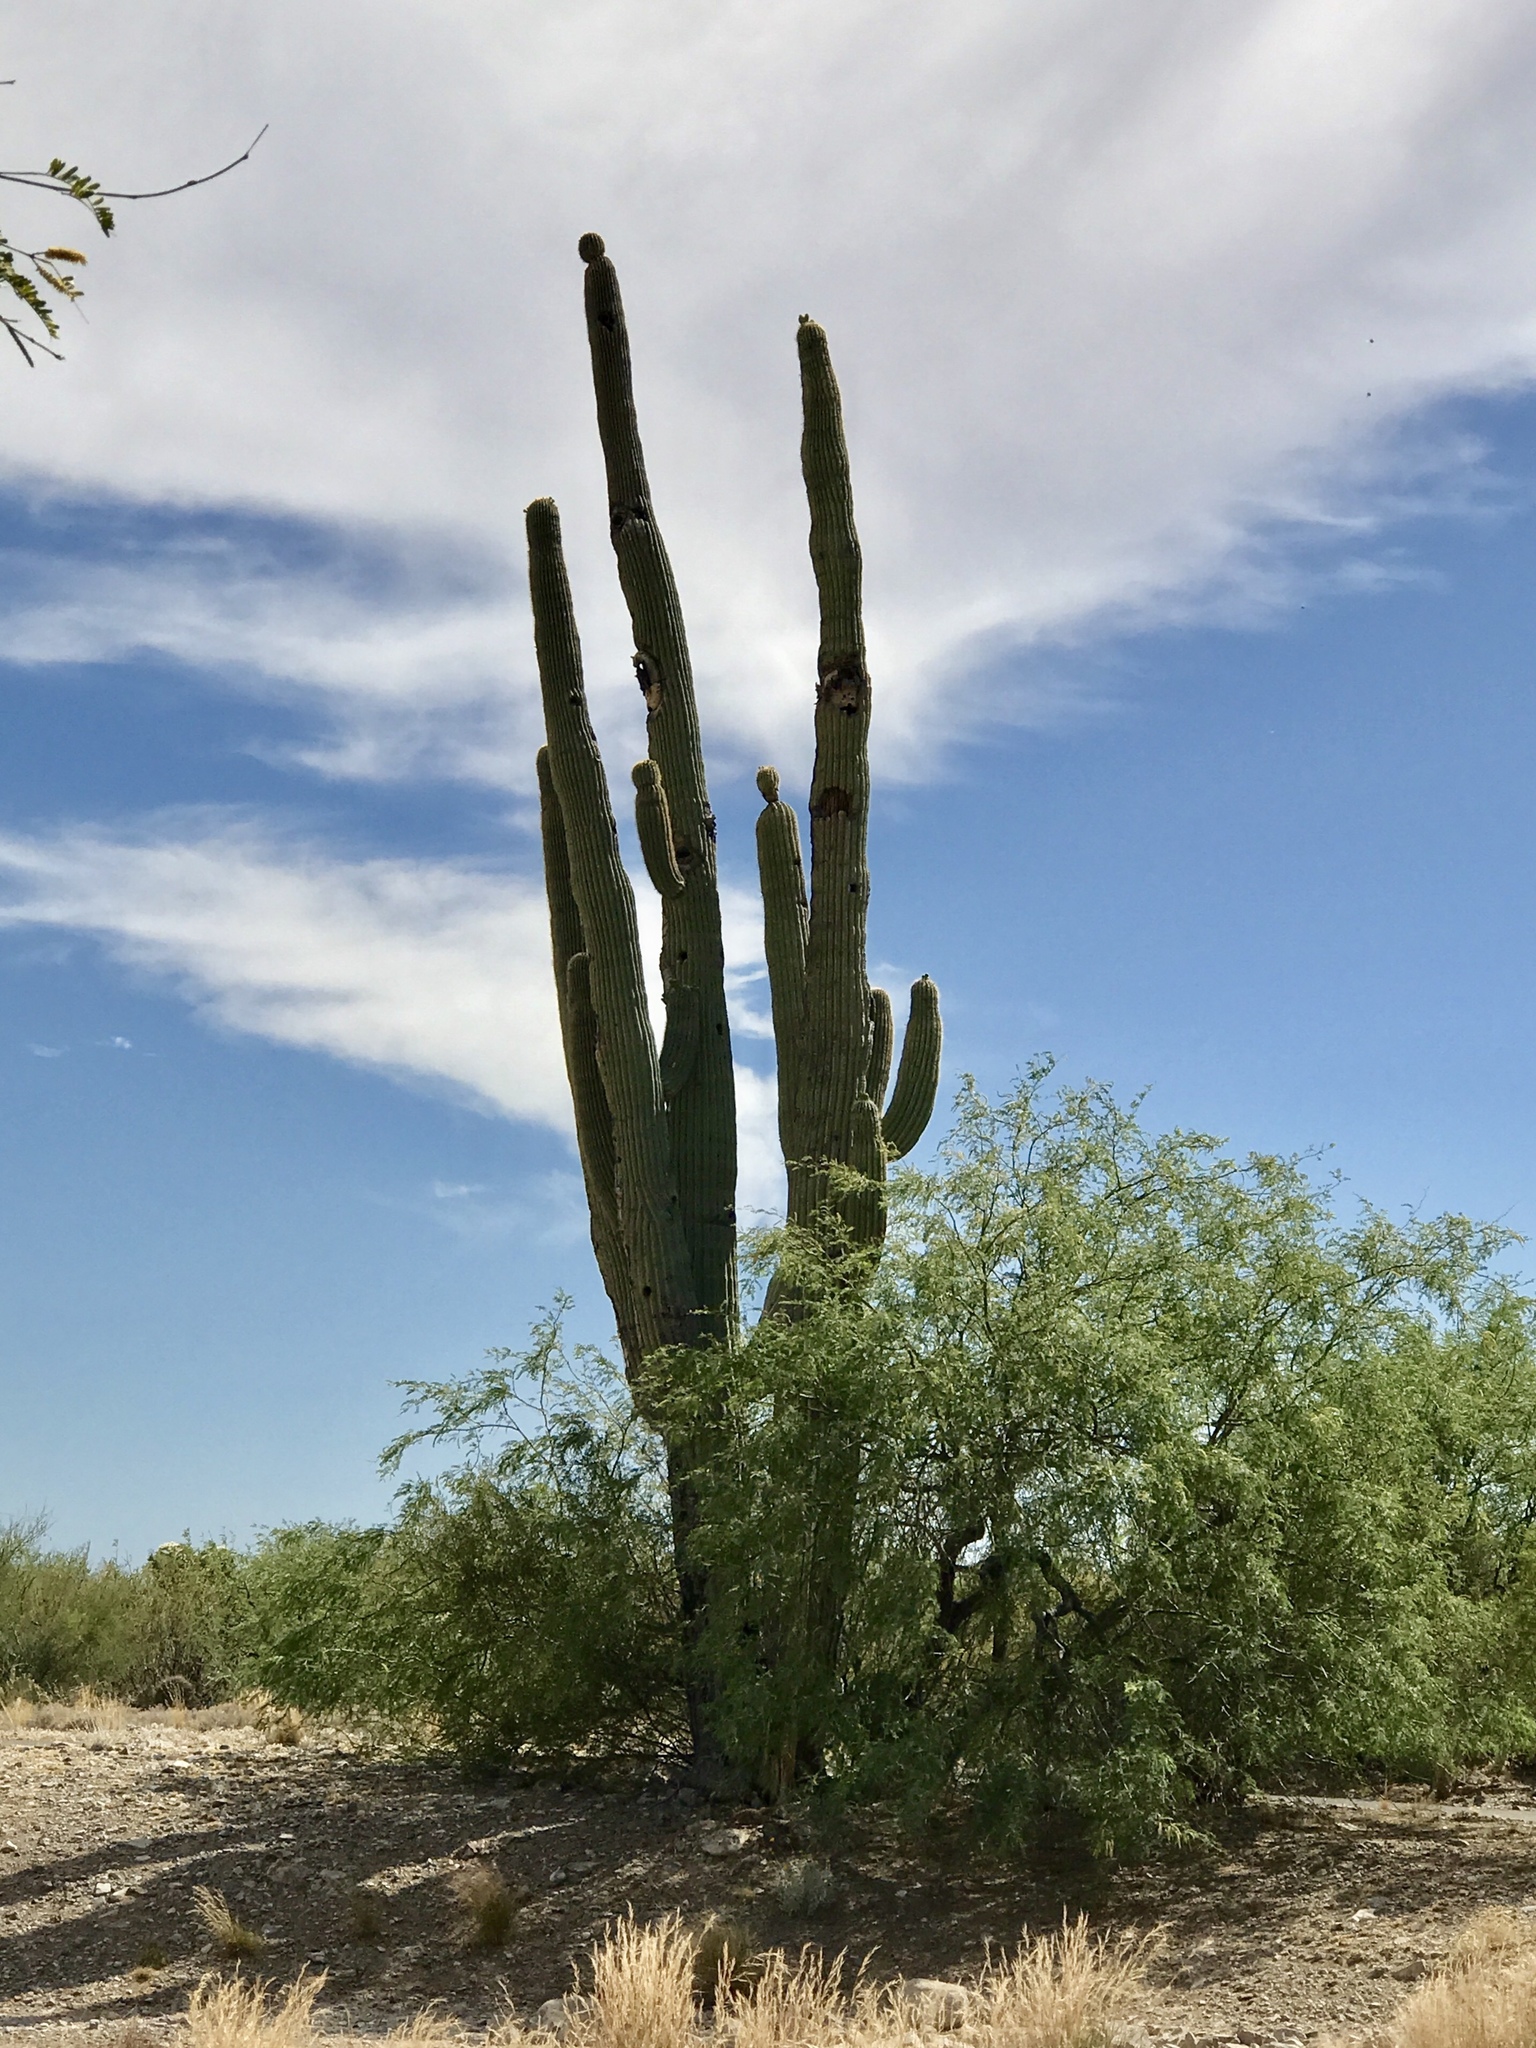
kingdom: Plantae
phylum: Tracheophyta
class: Magnoliopsida
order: Caryophyllales
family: Cactaceae
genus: Carnegiea
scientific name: Carnegiea gigantea
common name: Saguaro
